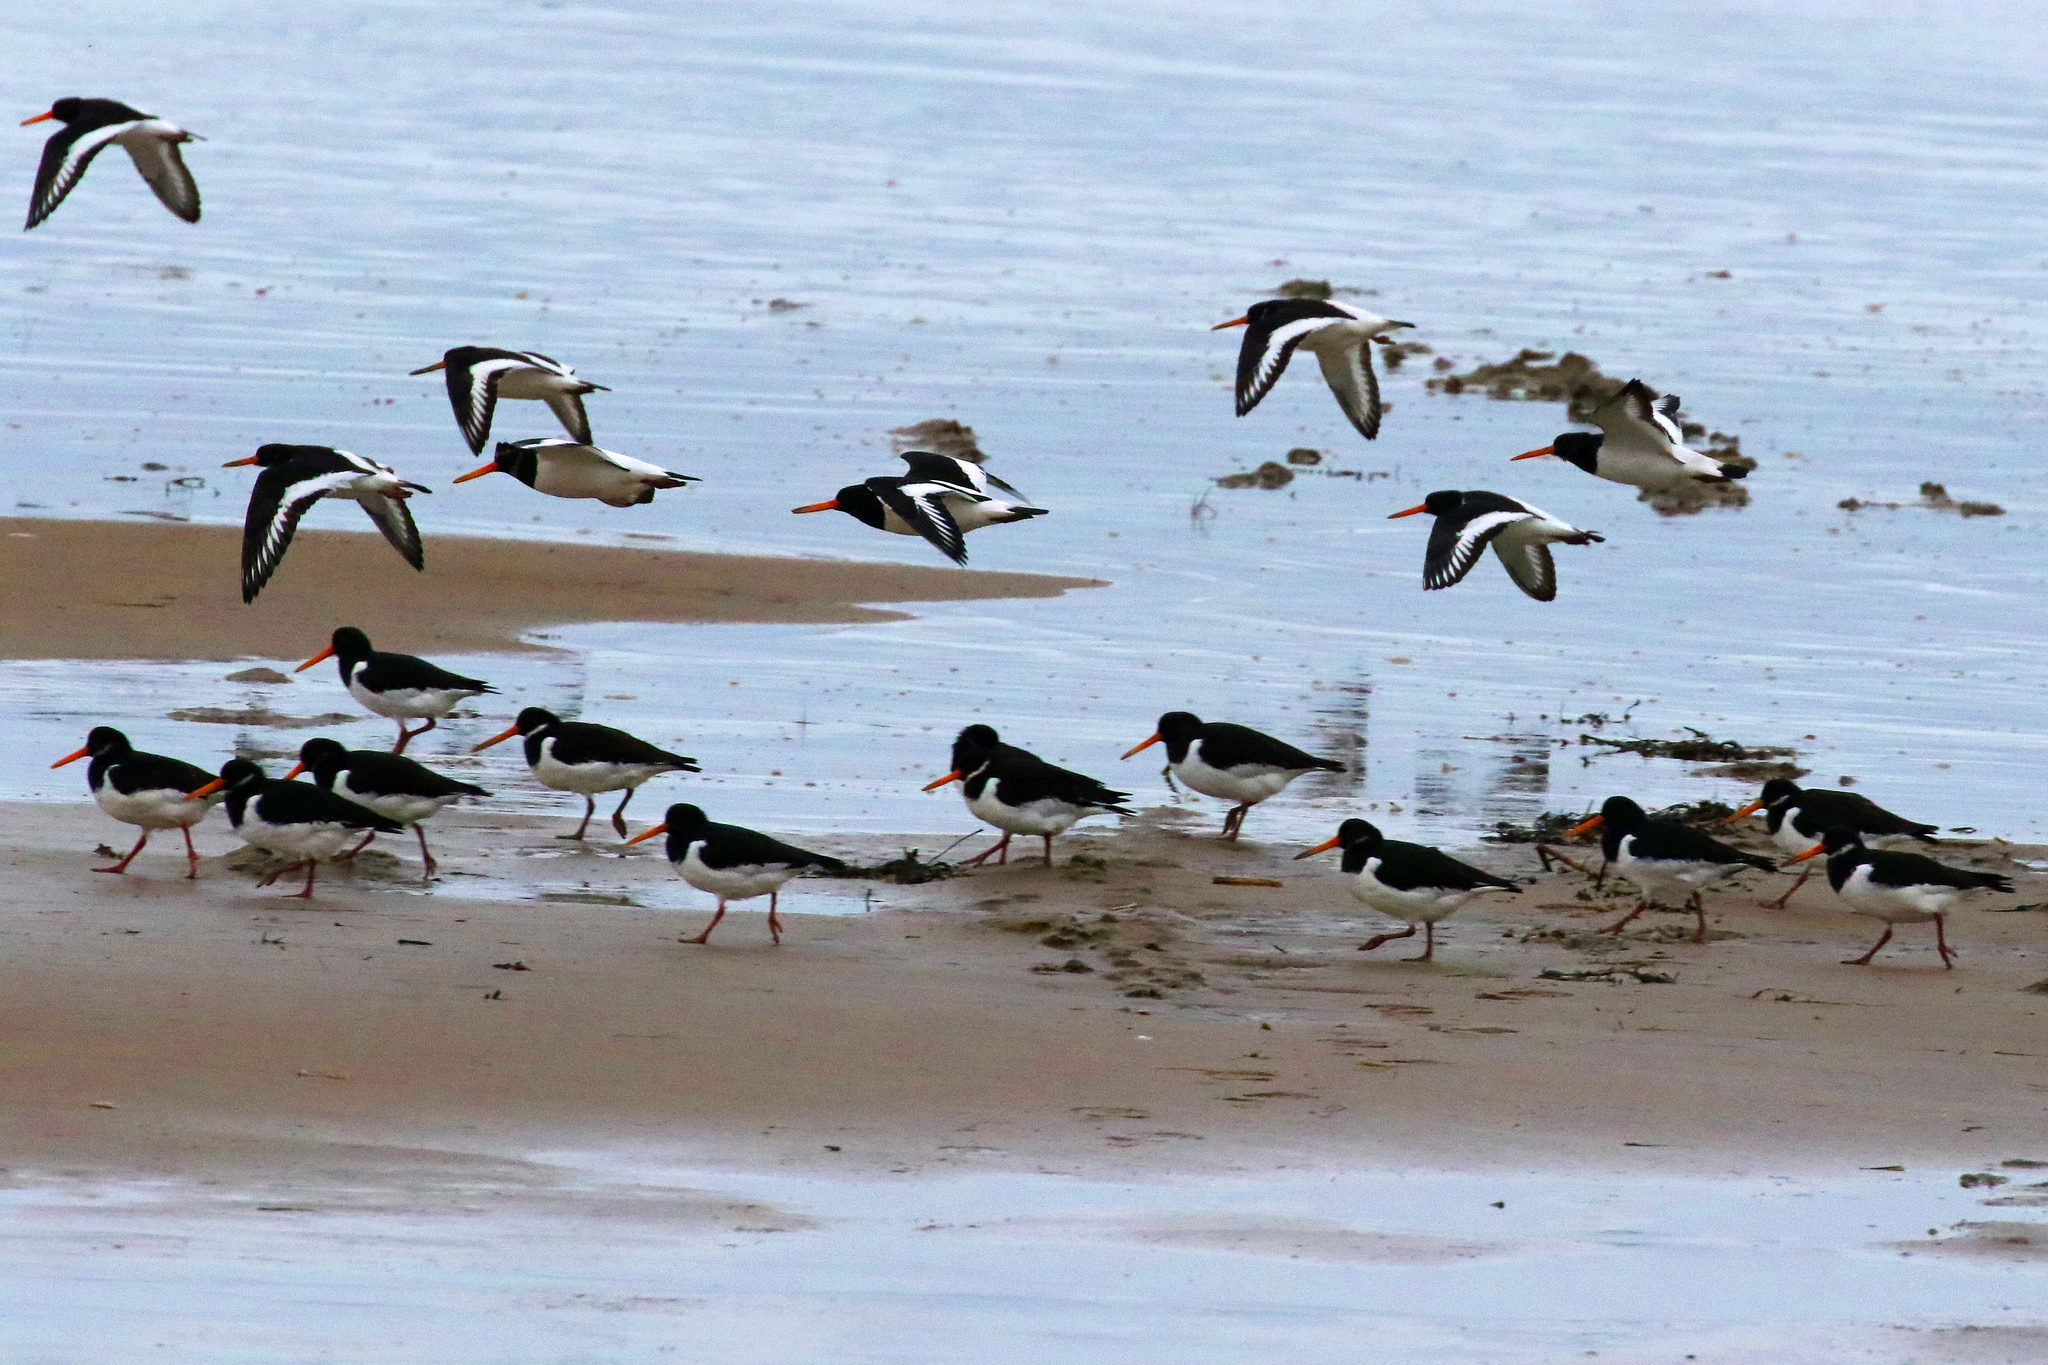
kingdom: Animalia
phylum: Chordata
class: Aves
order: Charadriiformes
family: Haematopodidae
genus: Haematopus
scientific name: Haematopus ostralegus
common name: Eurasian oystercatcher
